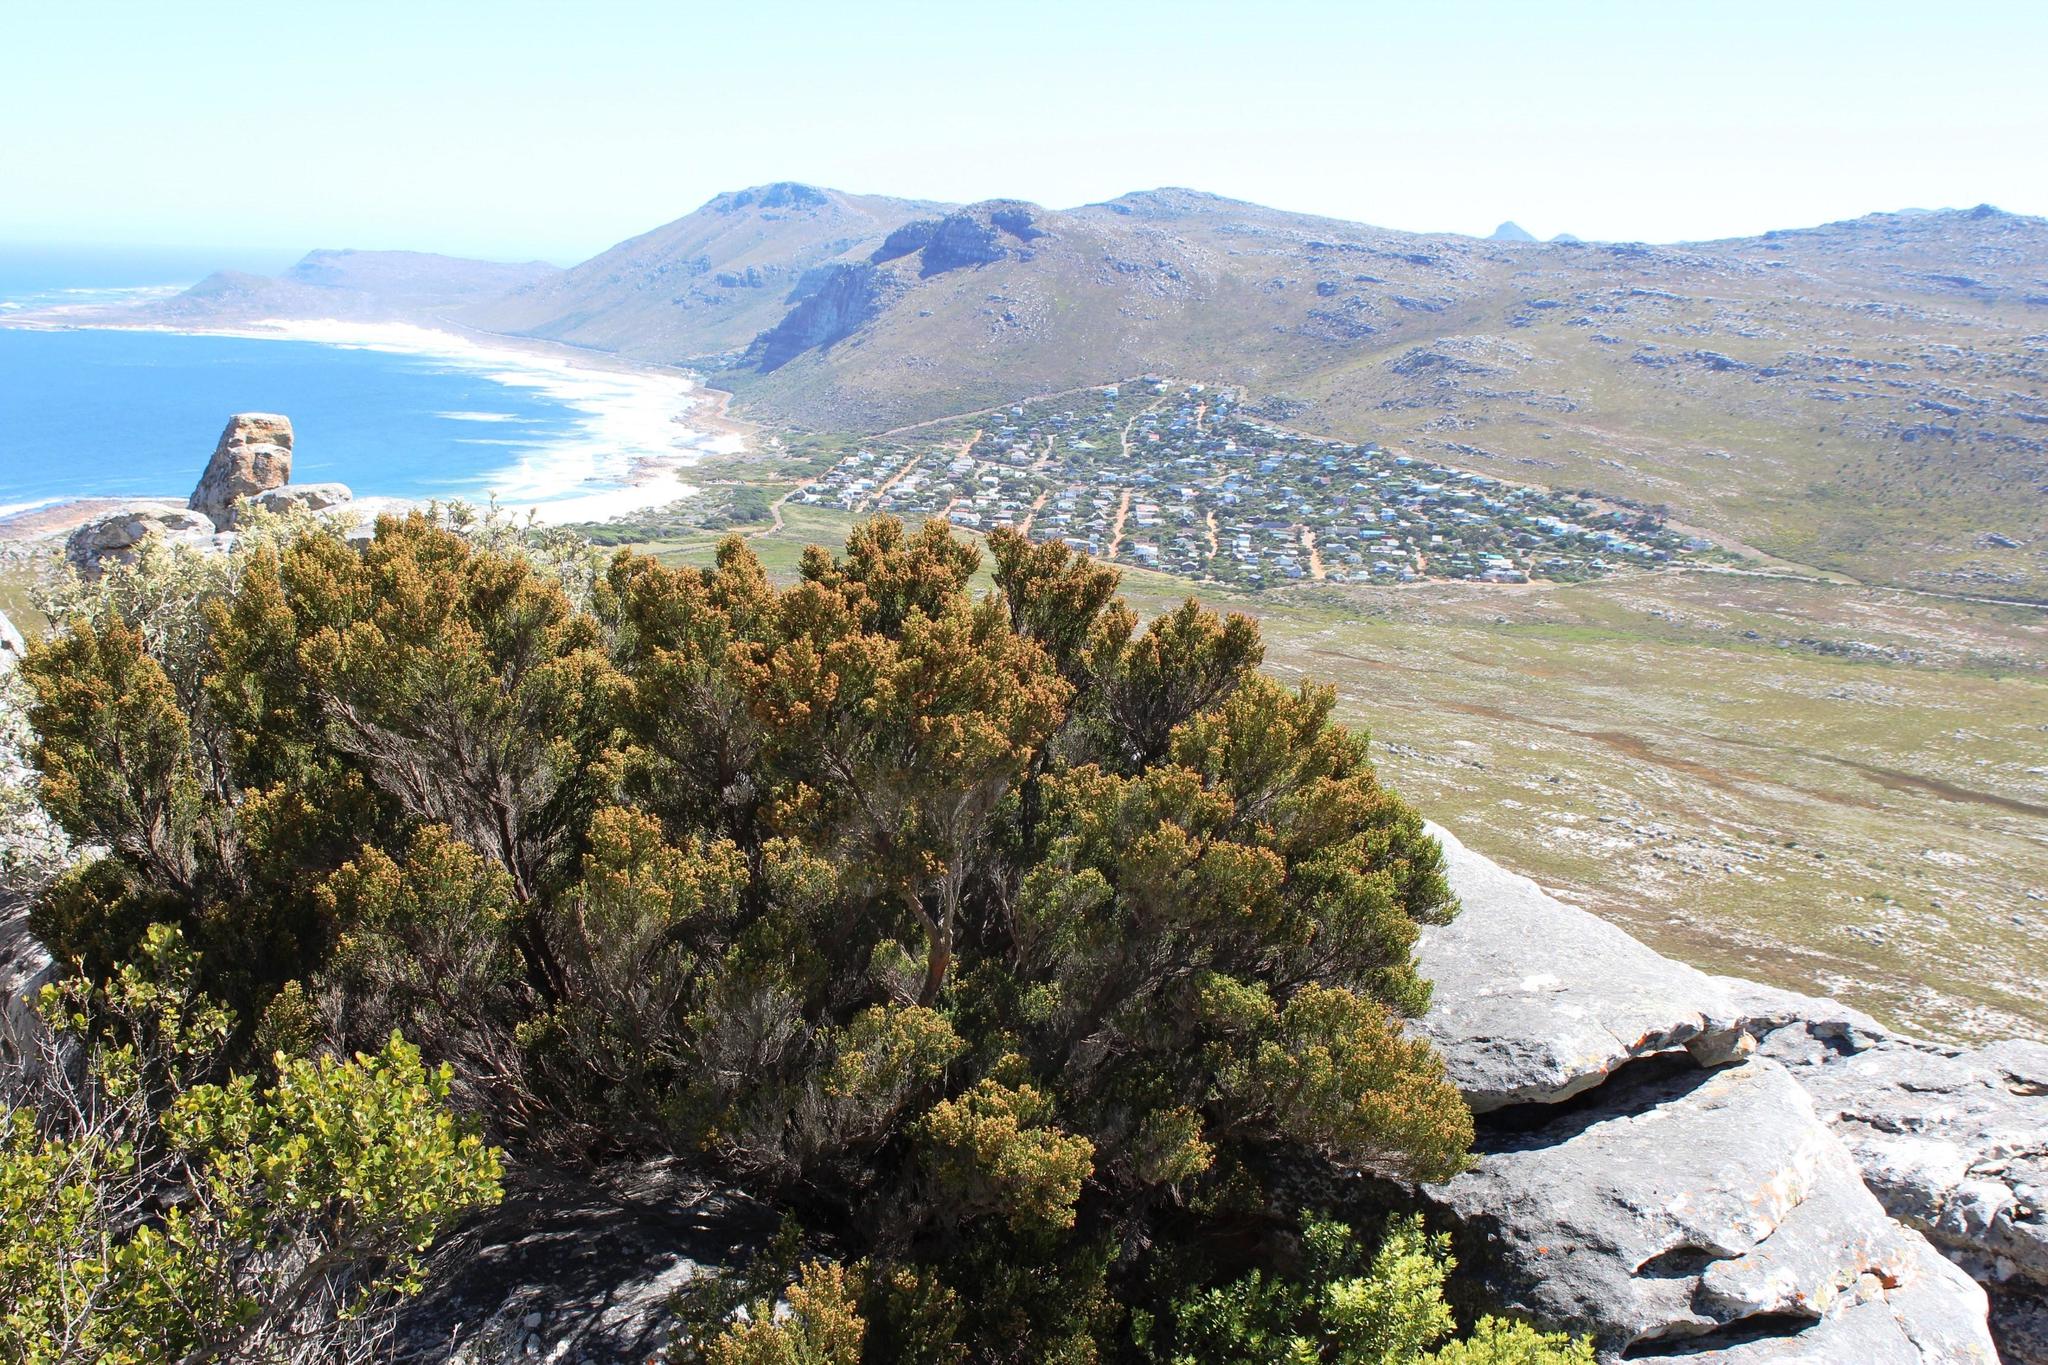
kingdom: Plantae
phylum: Tracheophyta
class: Magnoliopsida
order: Ericales
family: Ericaceae
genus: Erica
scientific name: Erica tristis
